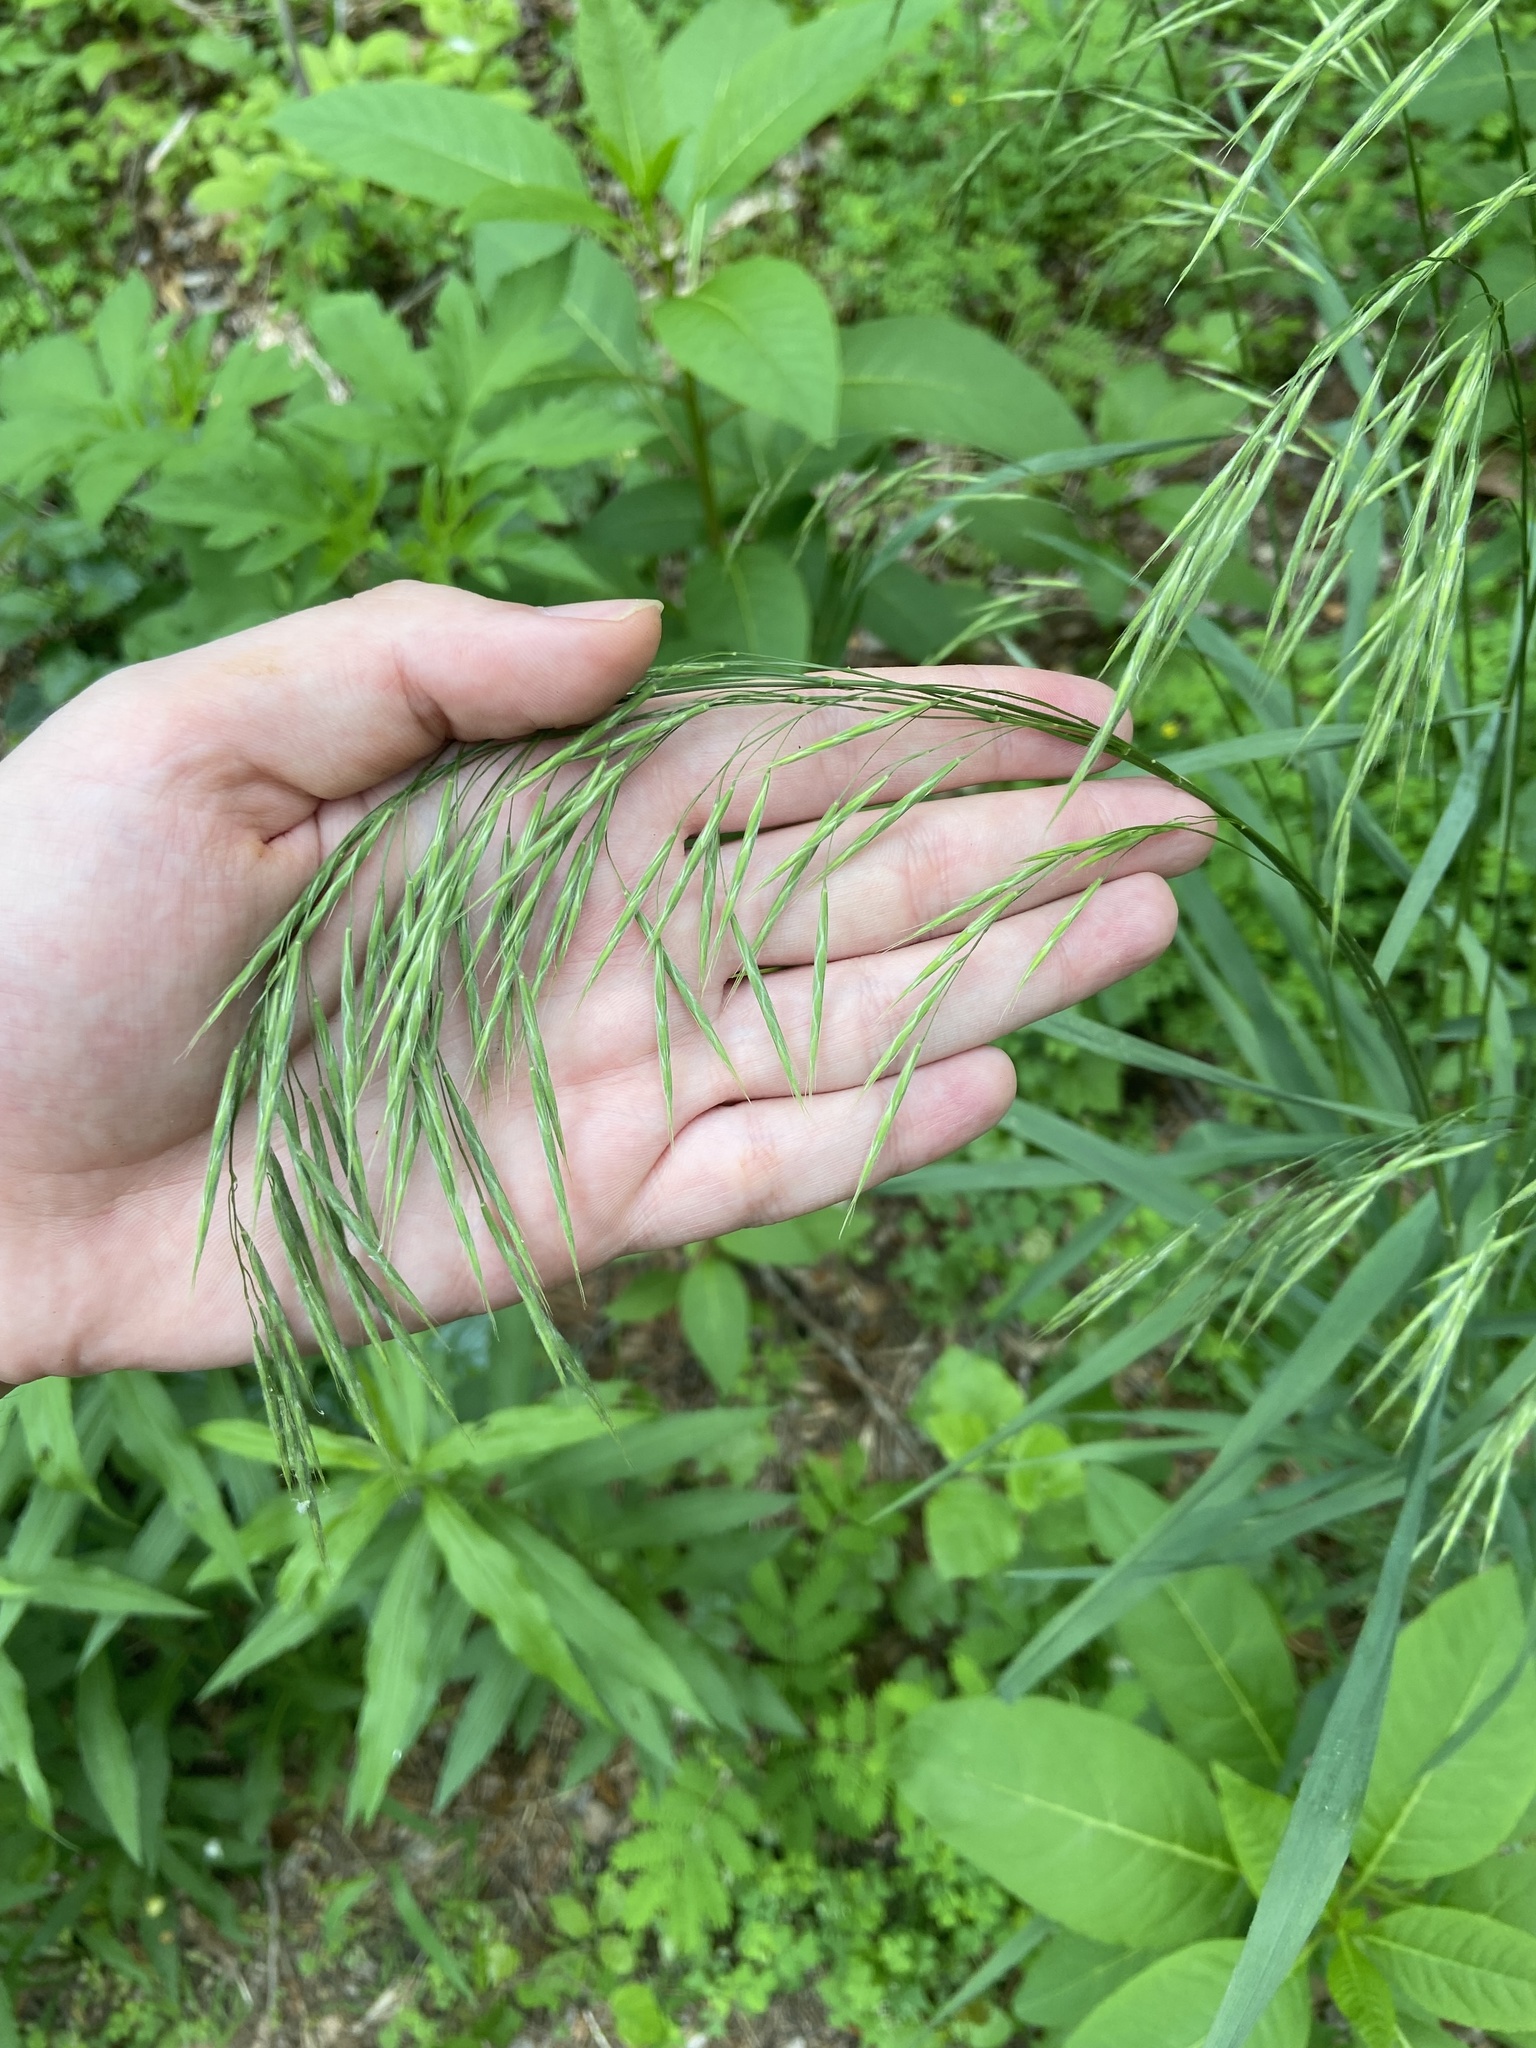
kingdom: Plantae
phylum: Tracheophyta
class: Liliopsida
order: Poales
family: Poaceae
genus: Bromus
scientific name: Bromus pubescens
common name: Hairy wood brome grass
